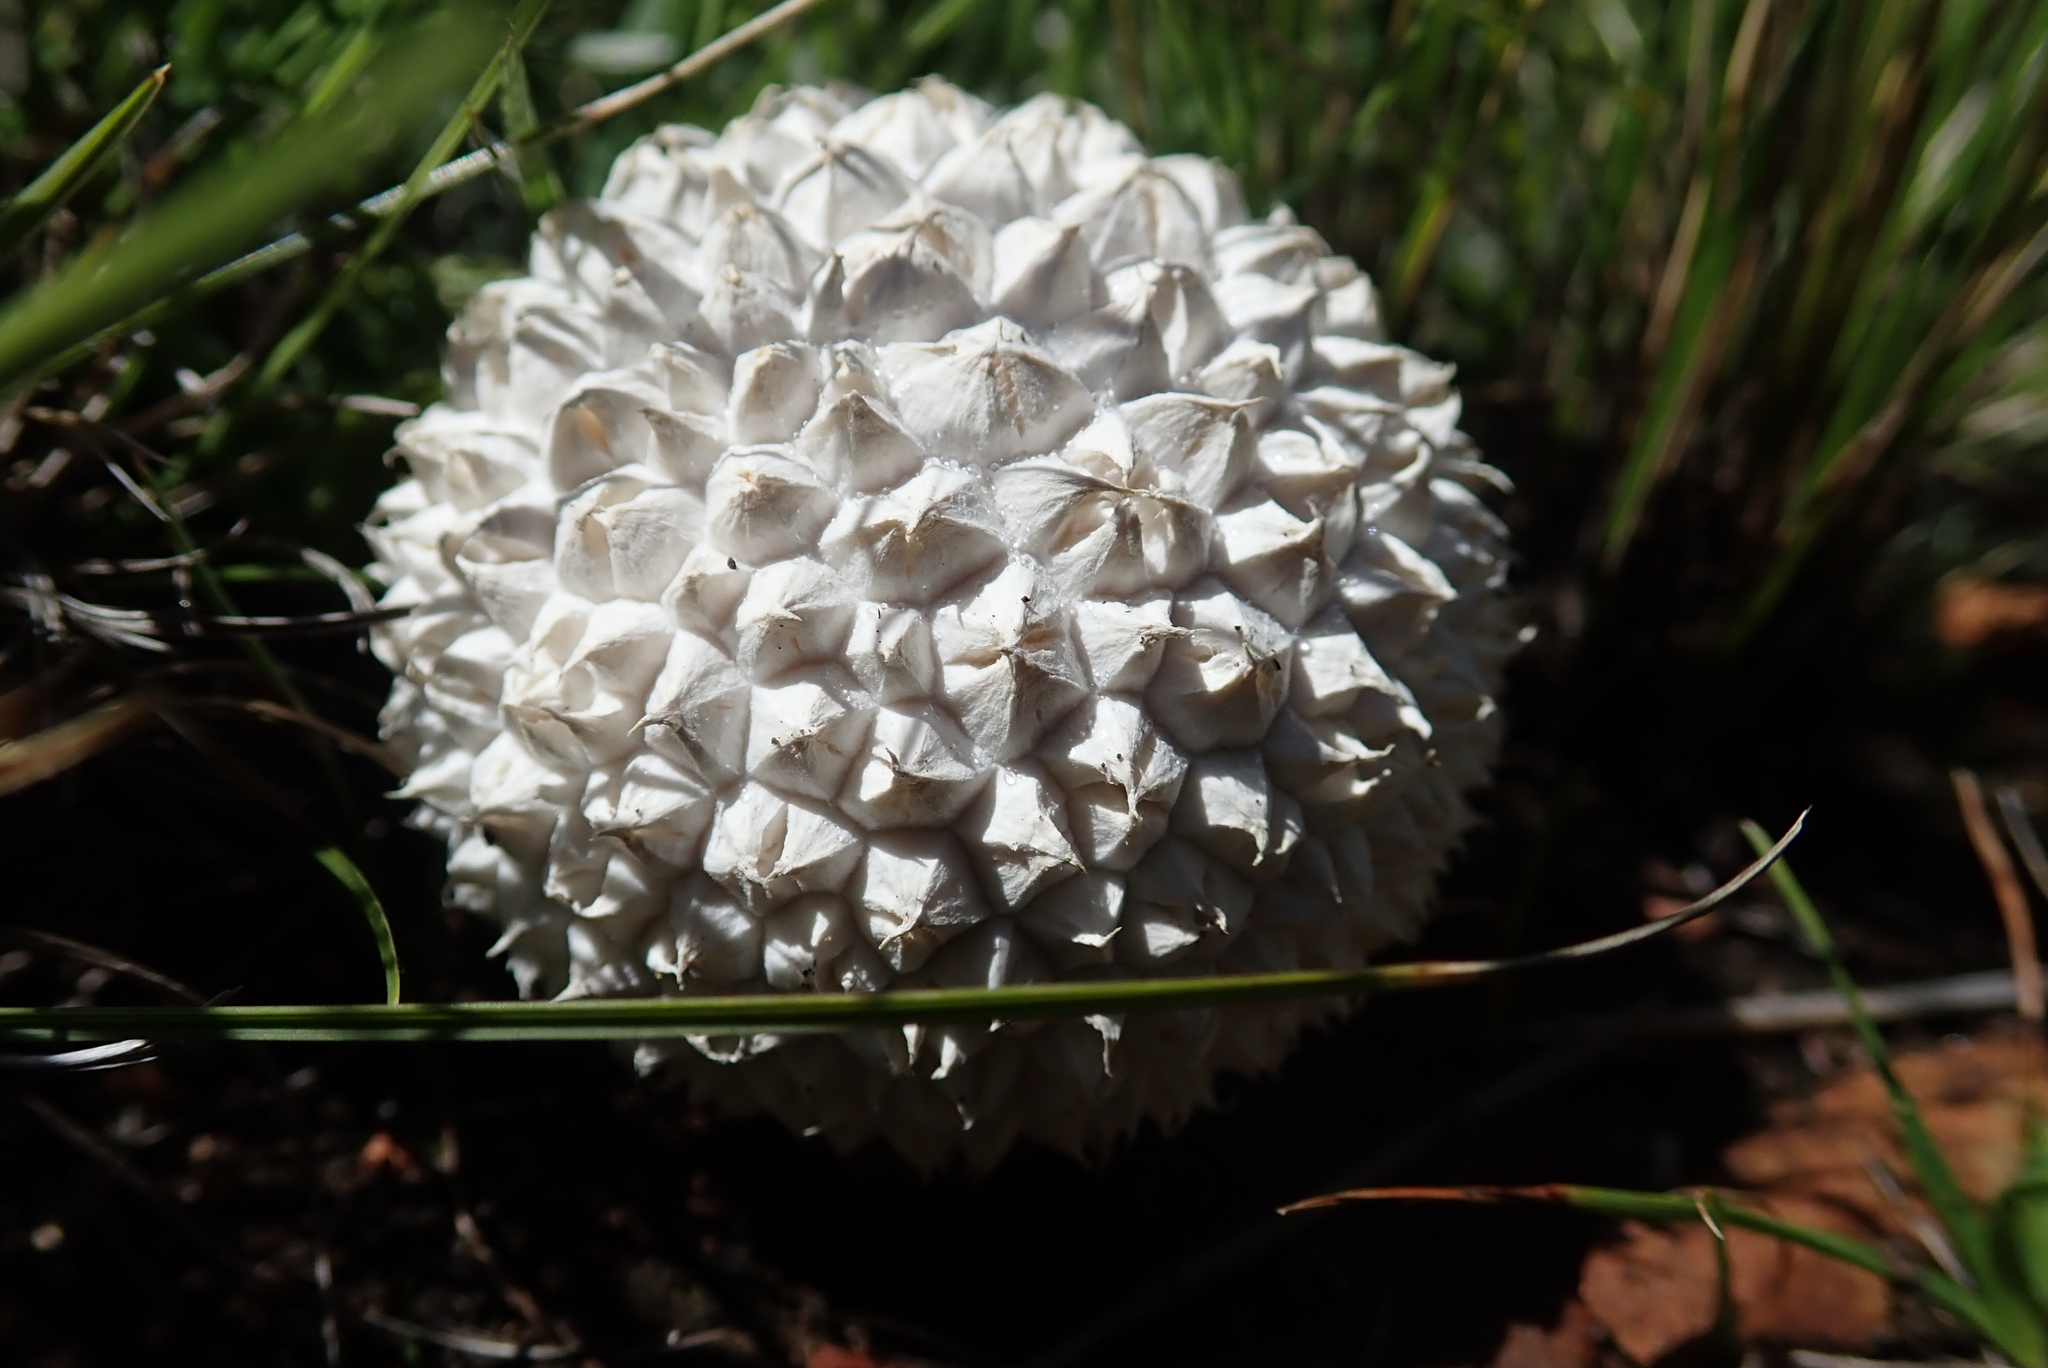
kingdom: Fungi
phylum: Basidiomycota
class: Agaricomycetes
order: Agaricales
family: Lycoperdaceae
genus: Calvatia
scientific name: Calvatia sculpta
